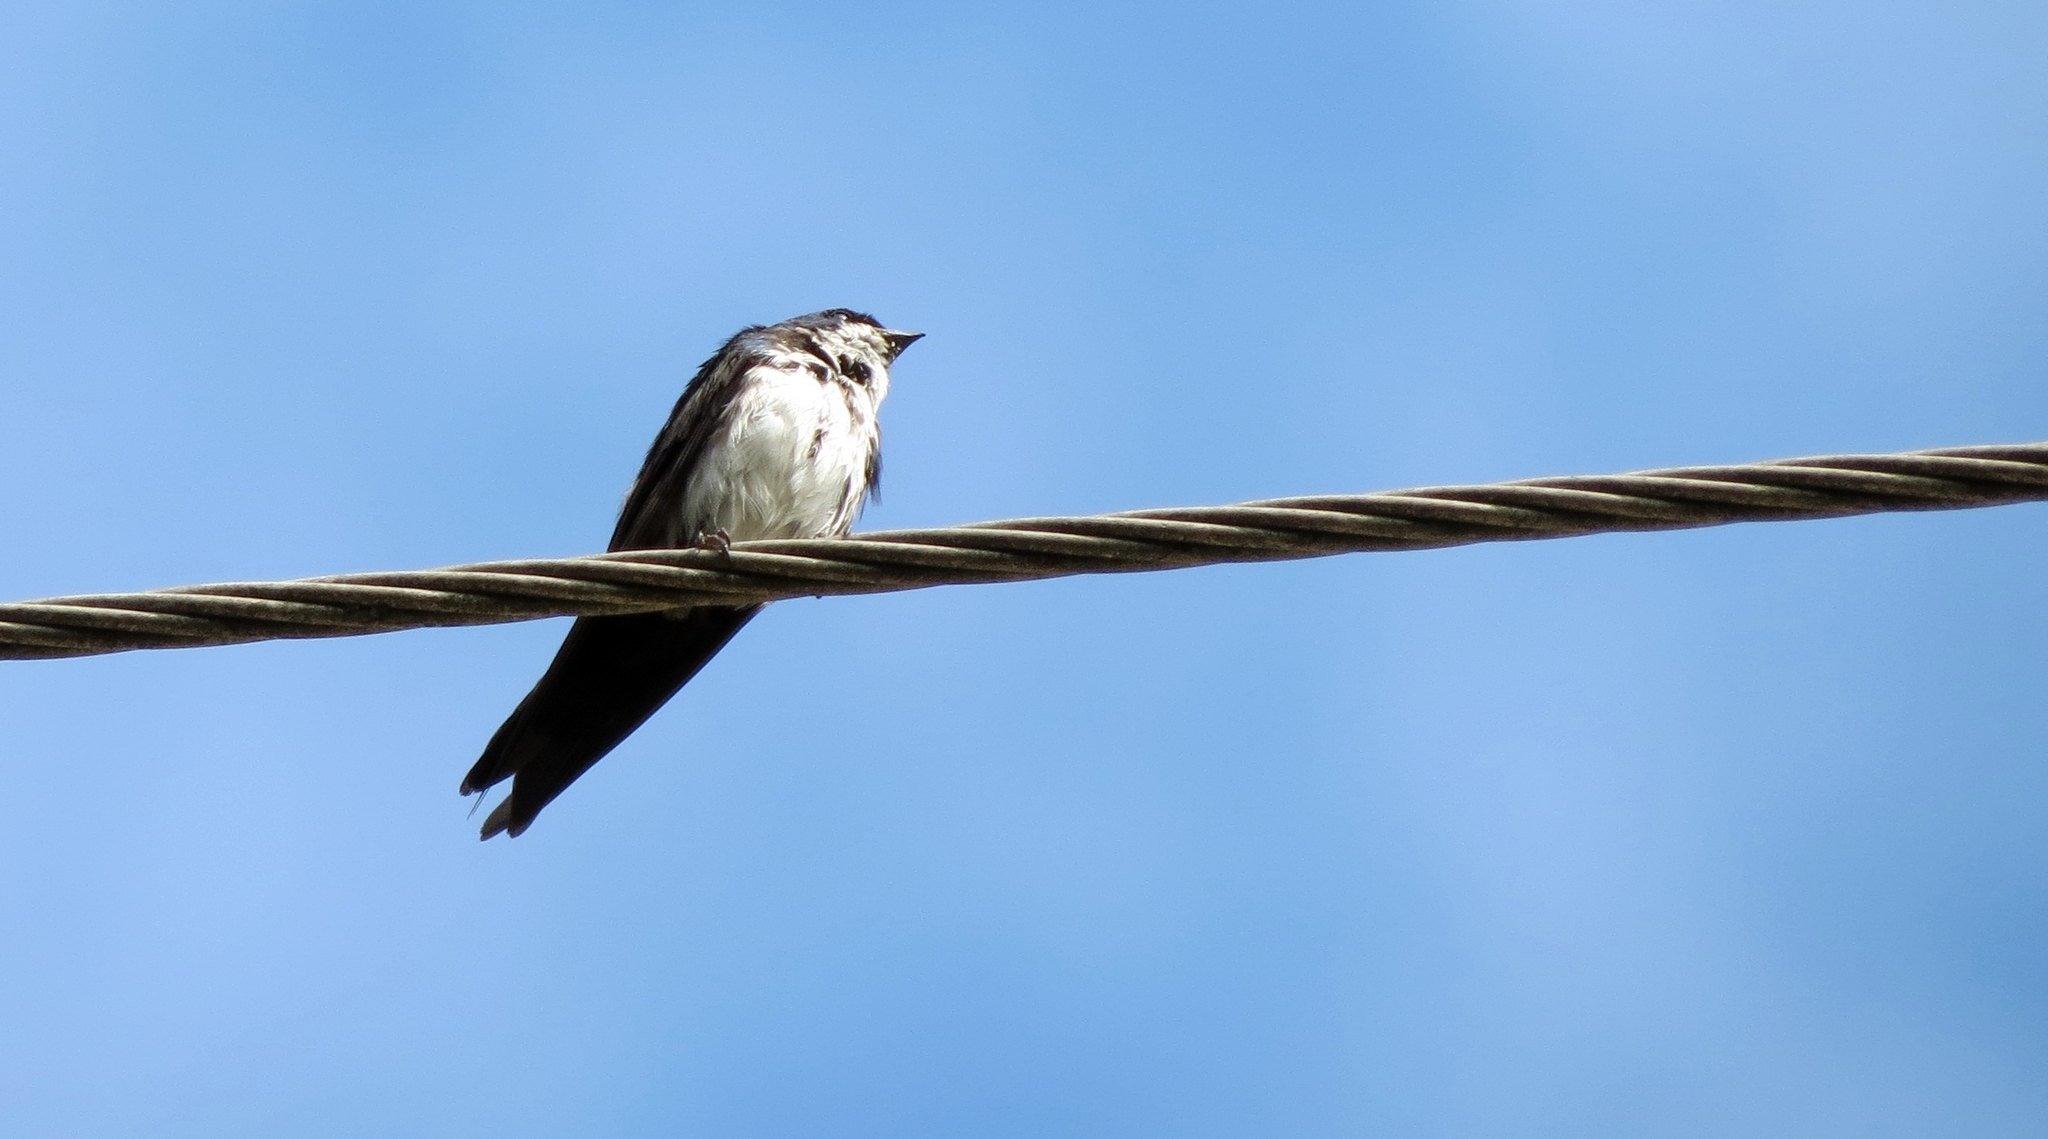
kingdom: Animalia
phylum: Chordata
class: Aves
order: Passeriformes
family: Hirundinidae
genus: Notiochelidon
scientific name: Notiochelidon cyanoleuca
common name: Blue-and-white swallow
